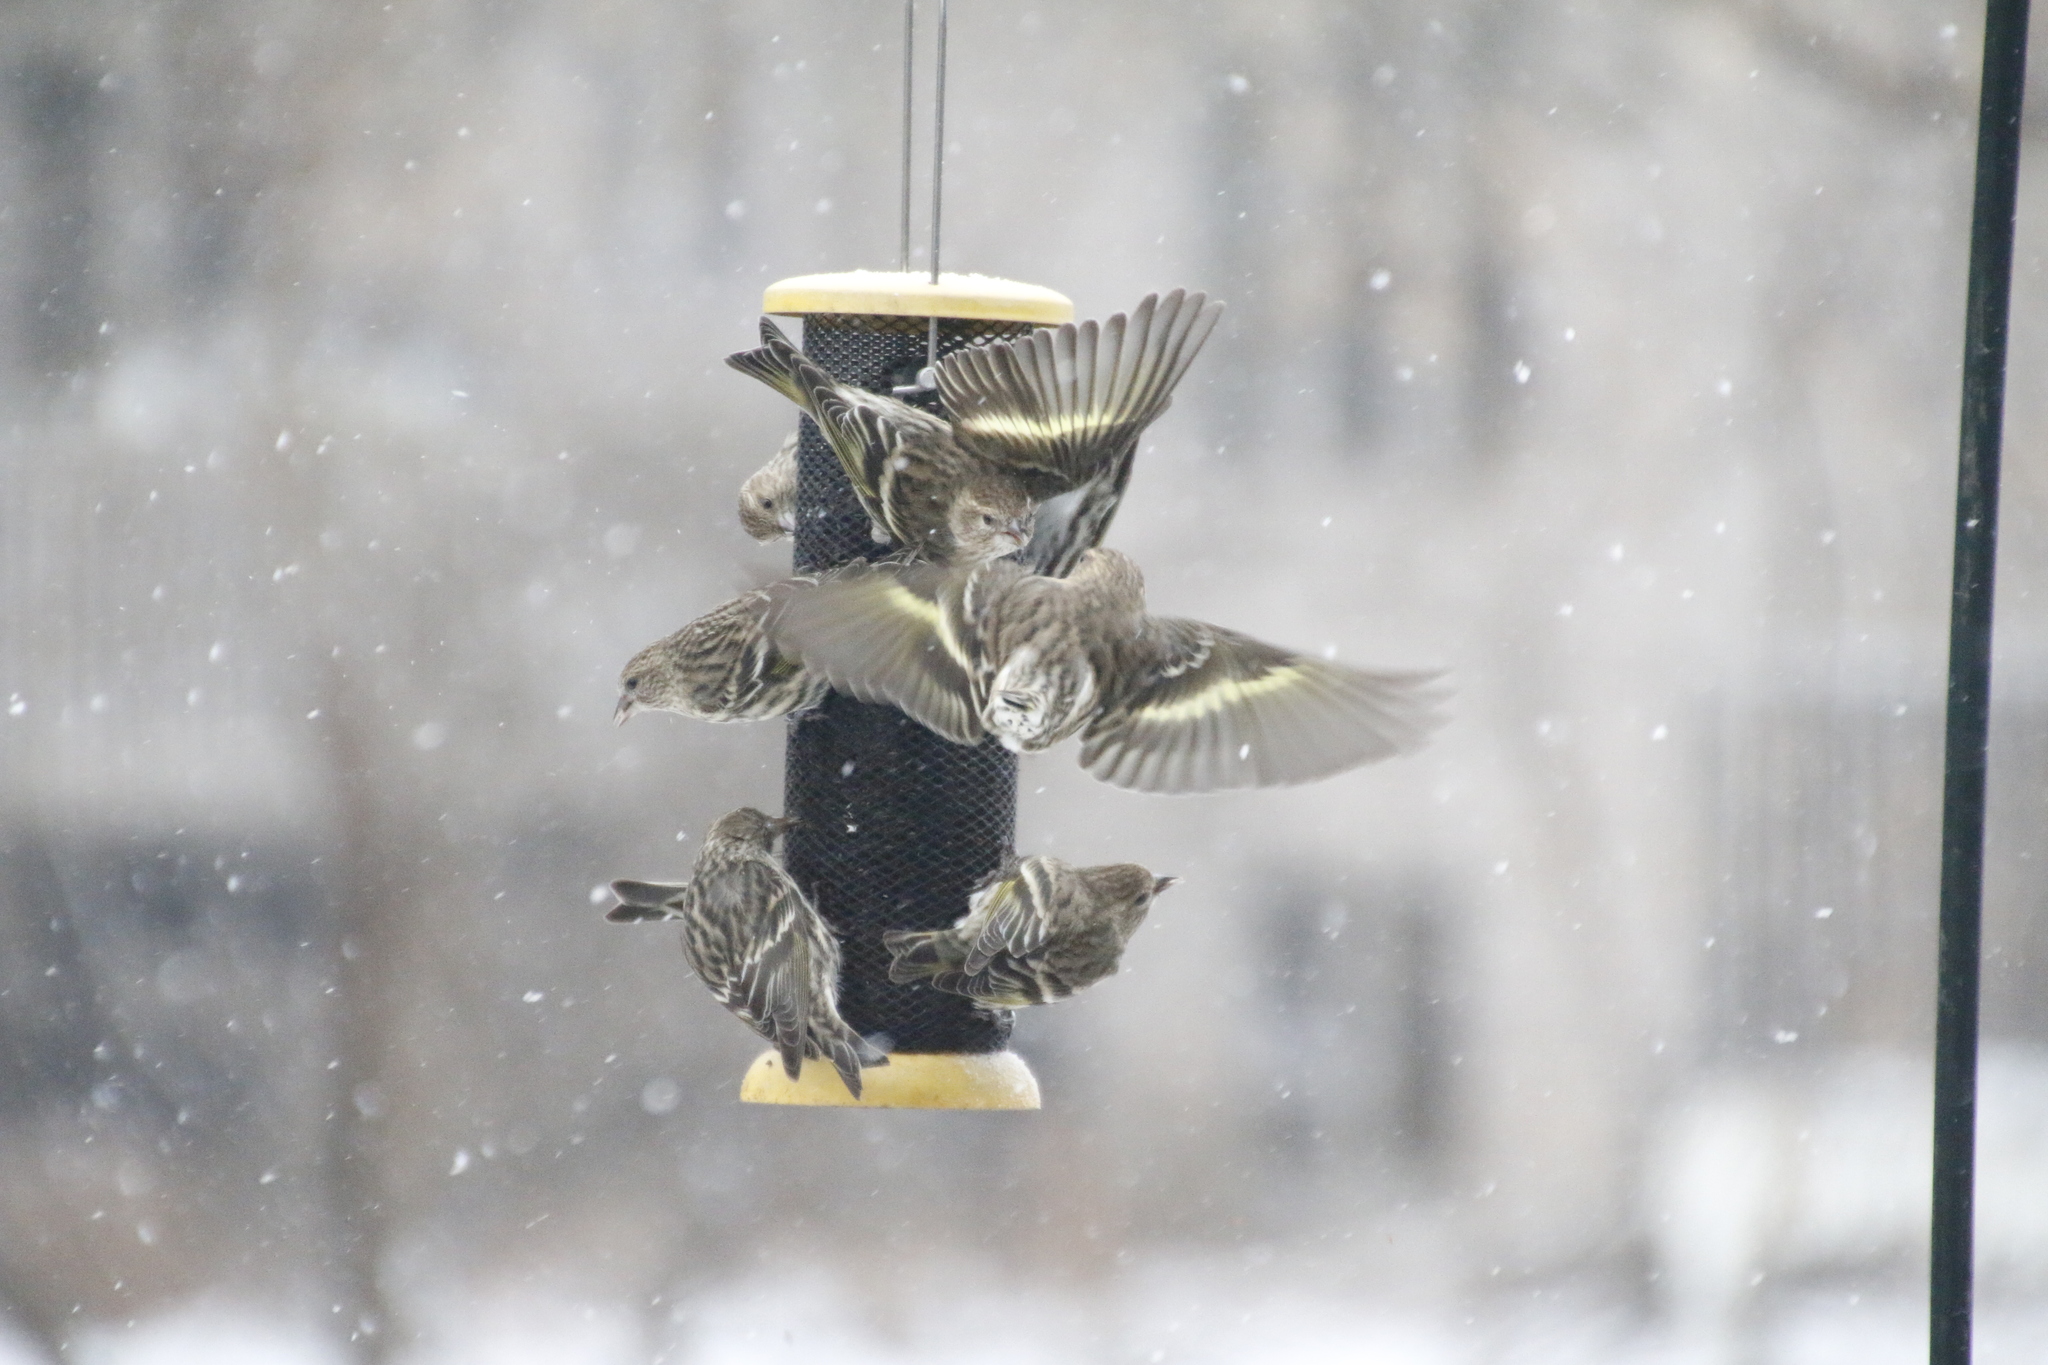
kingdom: Animalia
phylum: Chordata
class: Aves
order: Passeriformes
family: Fringillidae
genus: Spinus
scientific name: Spinus pinus
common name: Pine siskin
